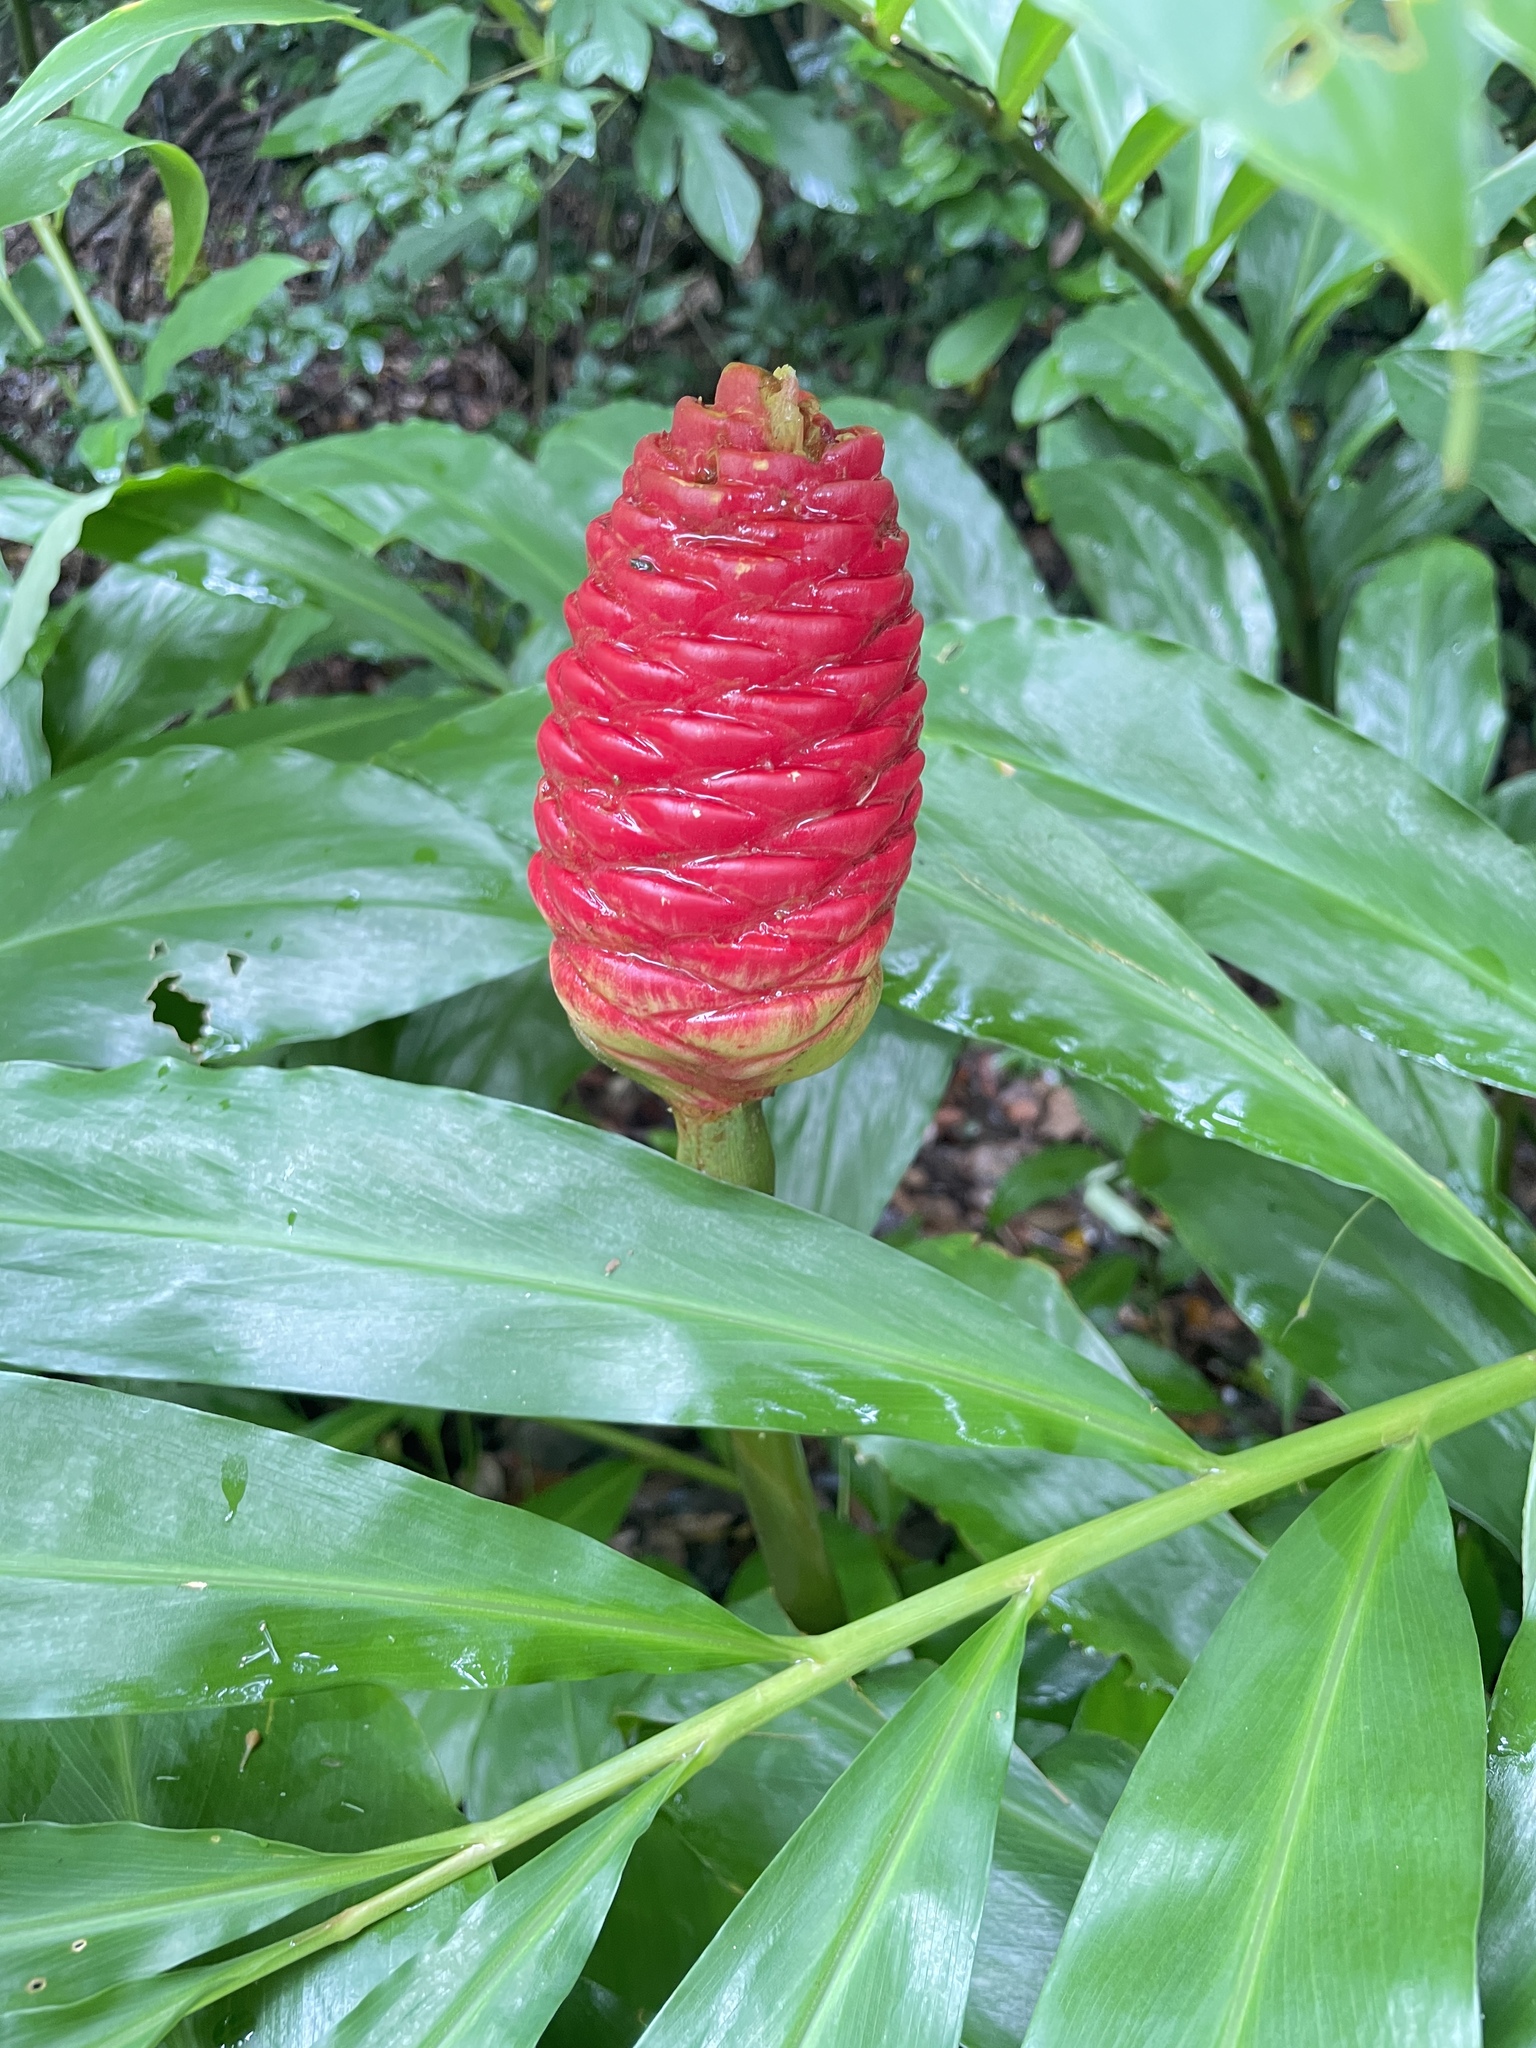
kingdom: Plantae
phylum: Tracheophyta
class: Liliopsida
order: Zingiberales
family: Zingiberaceae
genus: Zingiber
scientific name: Zingiber zerumbet
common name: Bitter ginger
